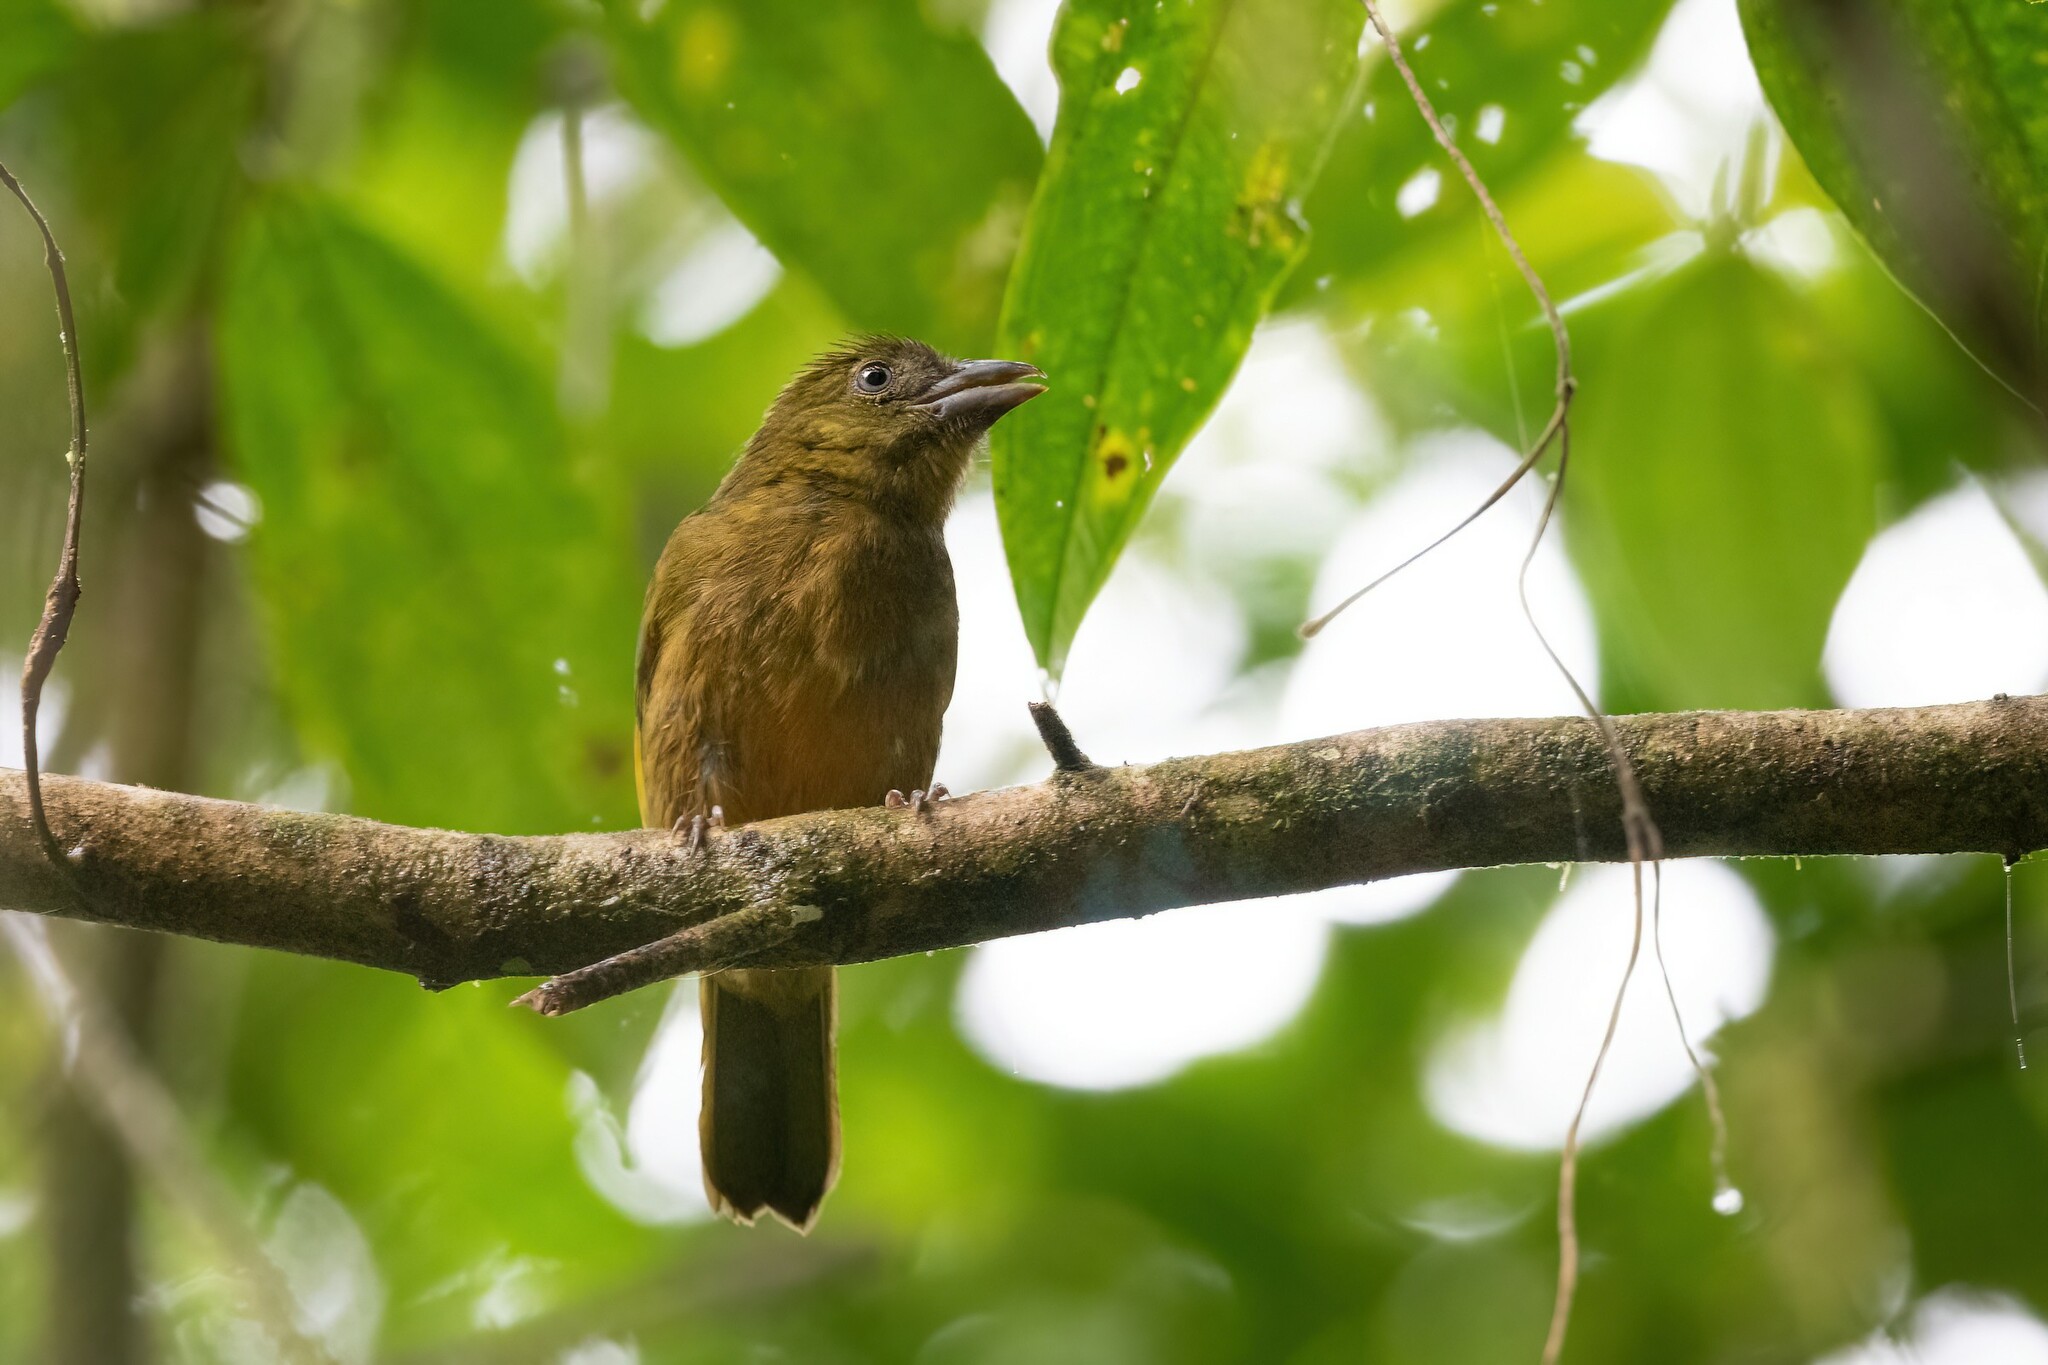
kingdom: Animalia
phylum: Chordata
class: Aves
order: Passeriformes
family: Cardinalidae
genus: Chlorothraupis
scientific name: Chlorothraupis stolzmanni
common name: Ochre-breasted tanager
